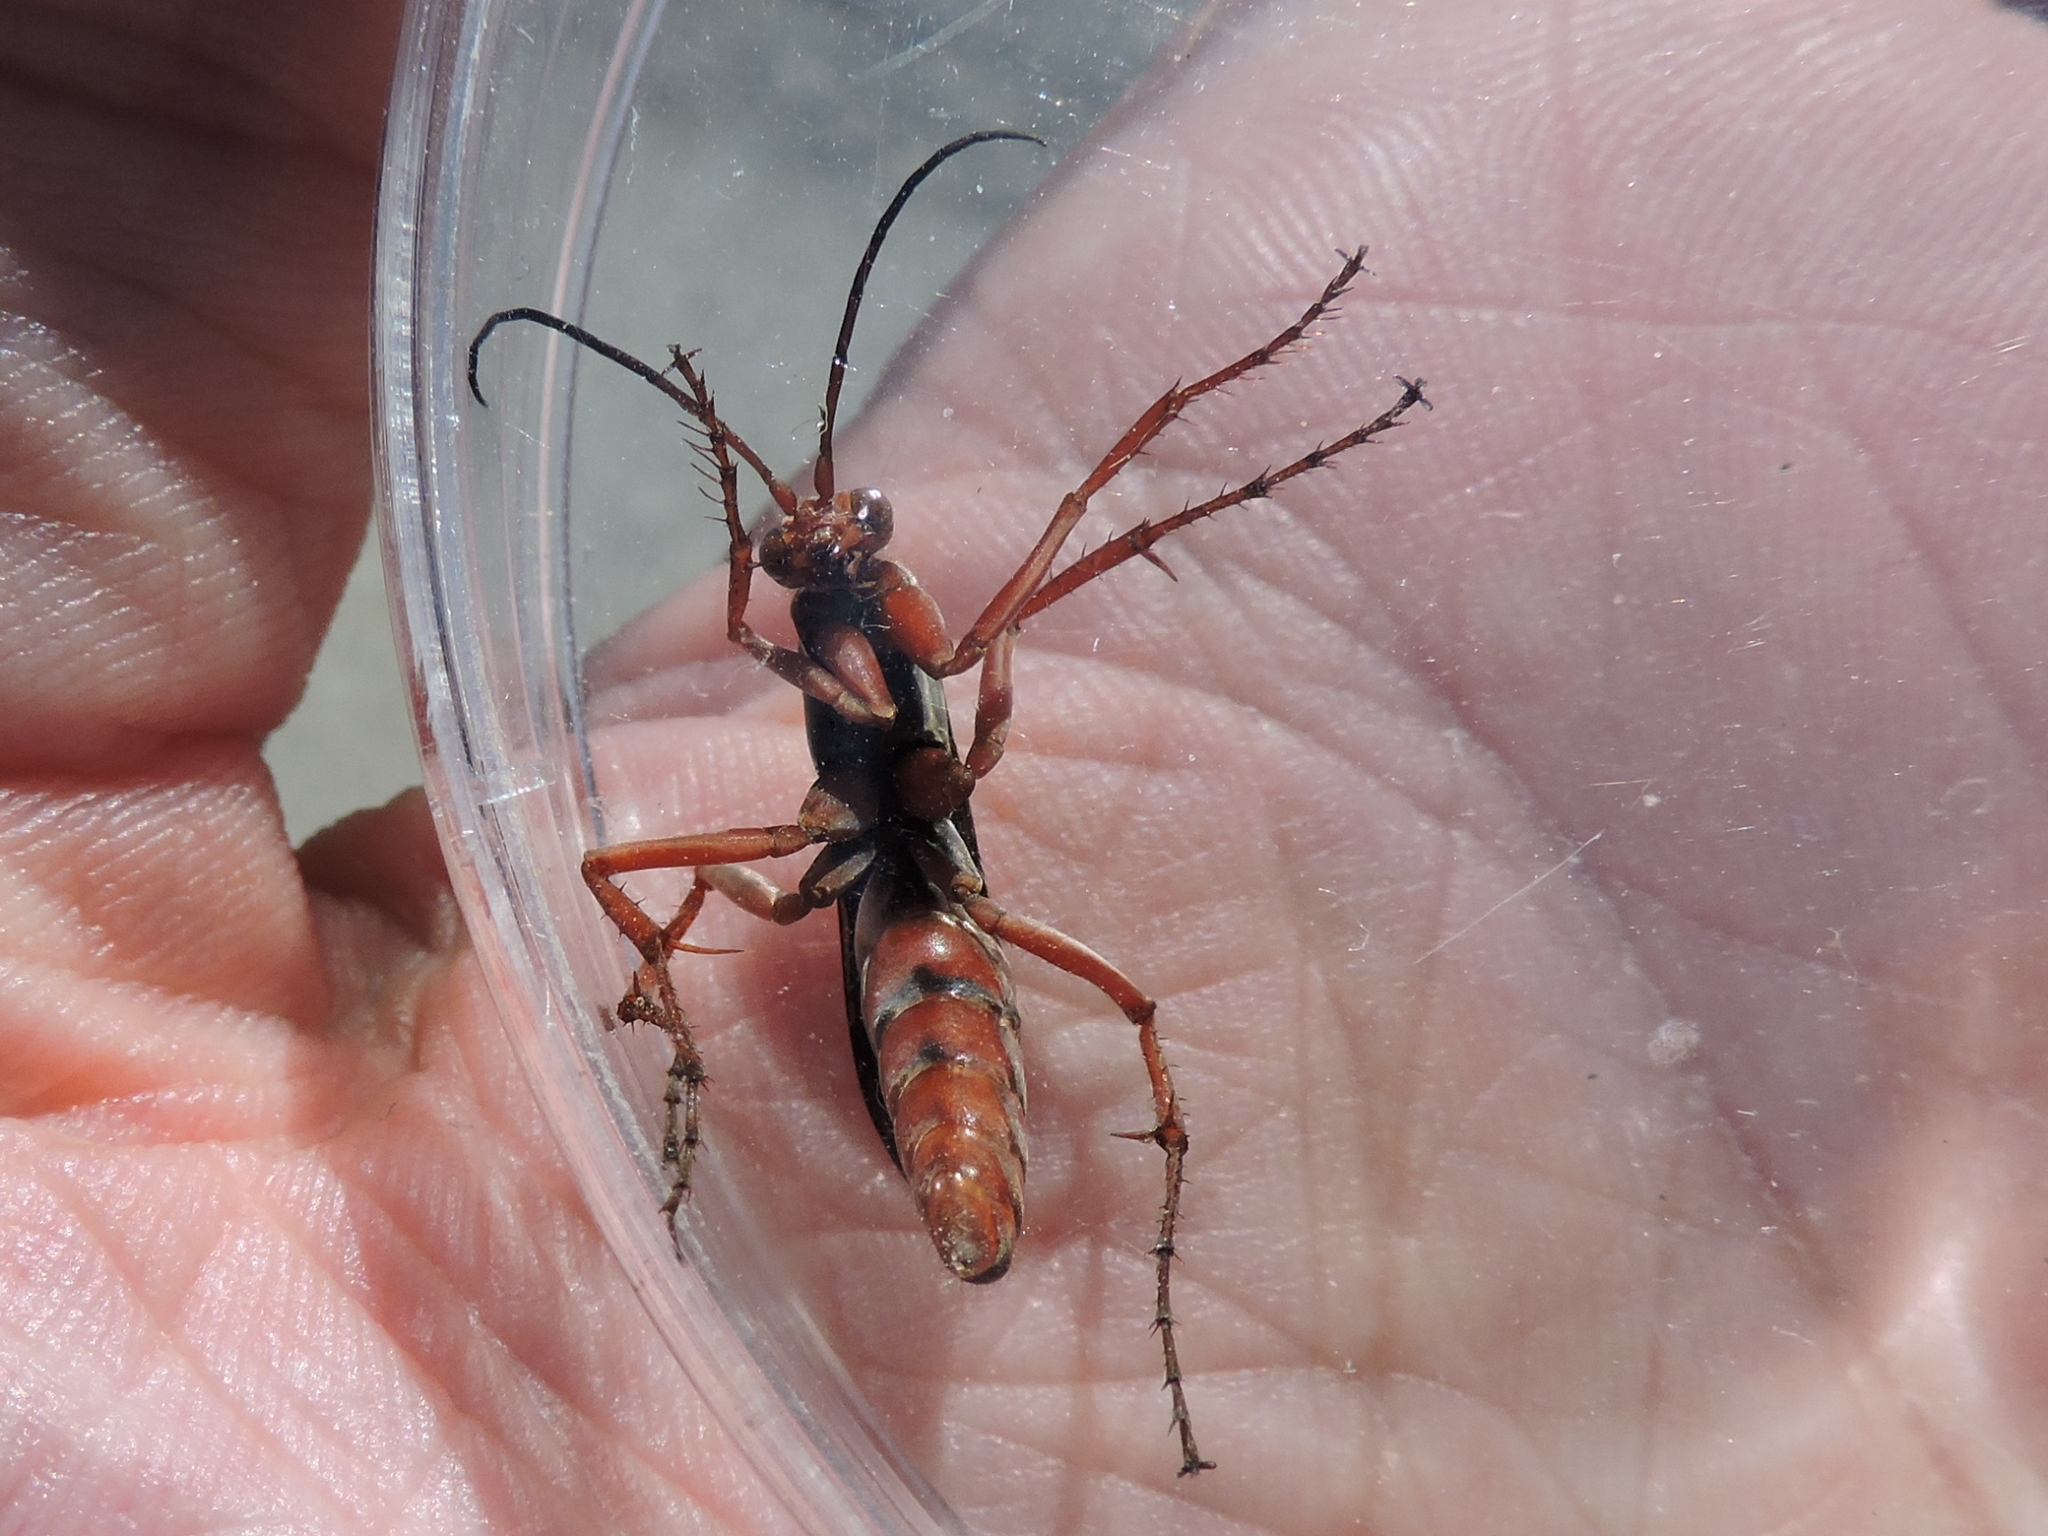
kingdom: Animalia
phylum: Arthropoda
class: Insecta
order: Hymenoptera
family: Pompilidae
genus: Tachypompilus
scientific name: Tachypompilus ferrugineus
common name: Rusty spider wasp
